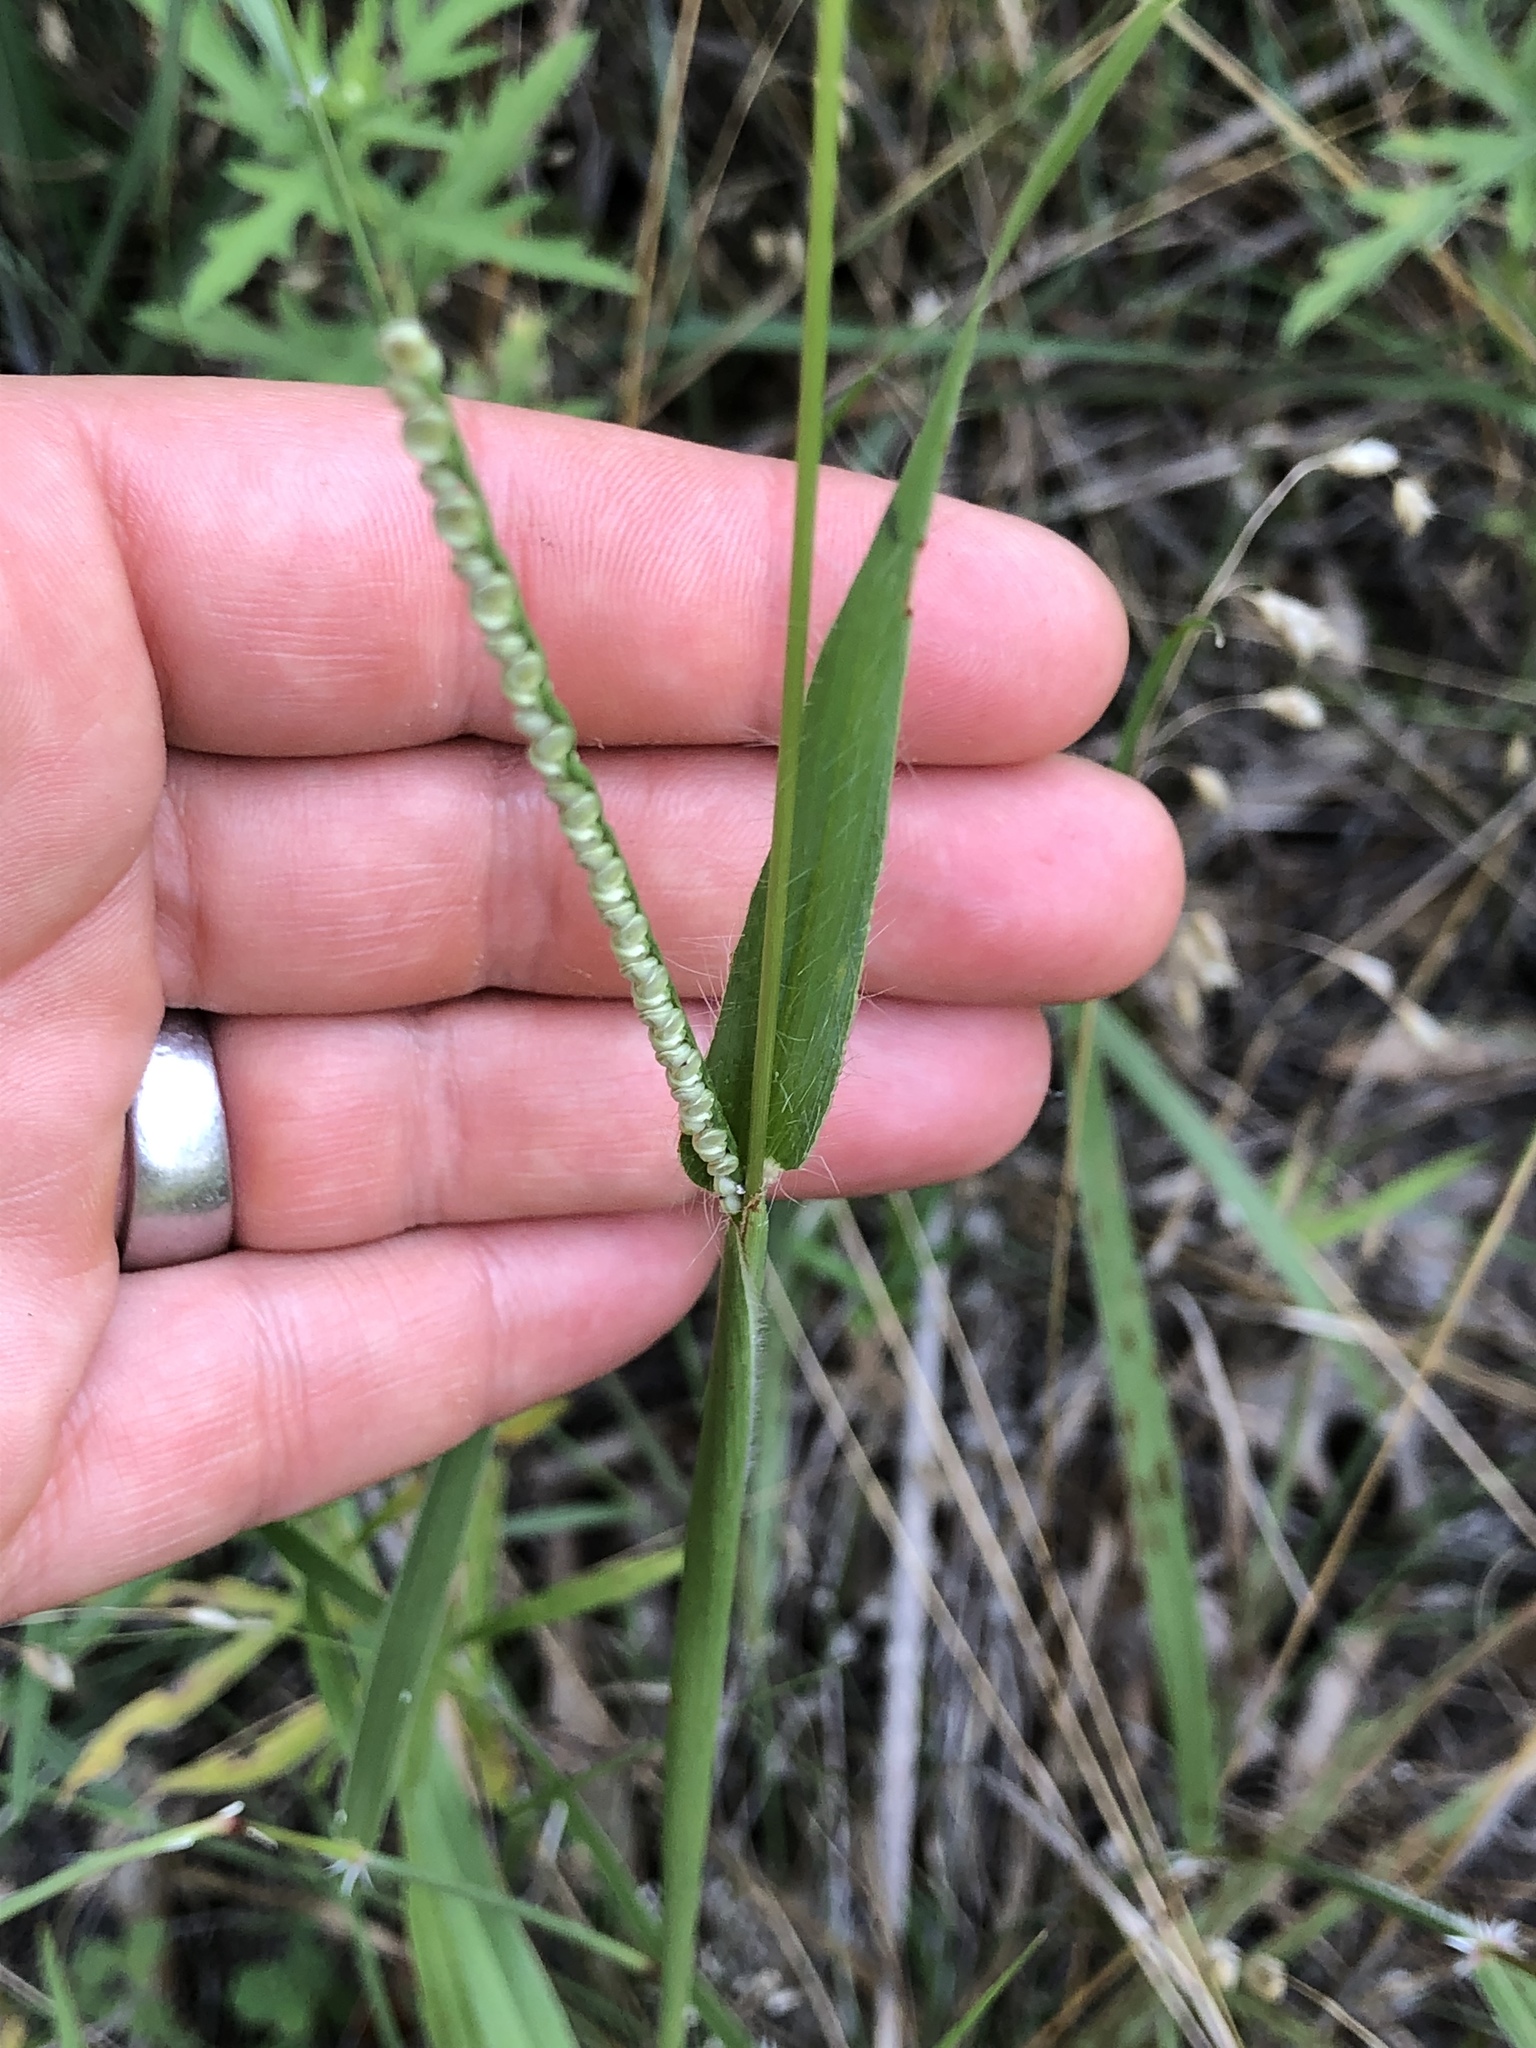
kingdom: Plantae
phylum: Tracheophyta
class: Liliopsida
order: Poales
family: Poaceae
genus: Paspalum
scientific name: Paspalum setaceum
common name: Slender paspalum
